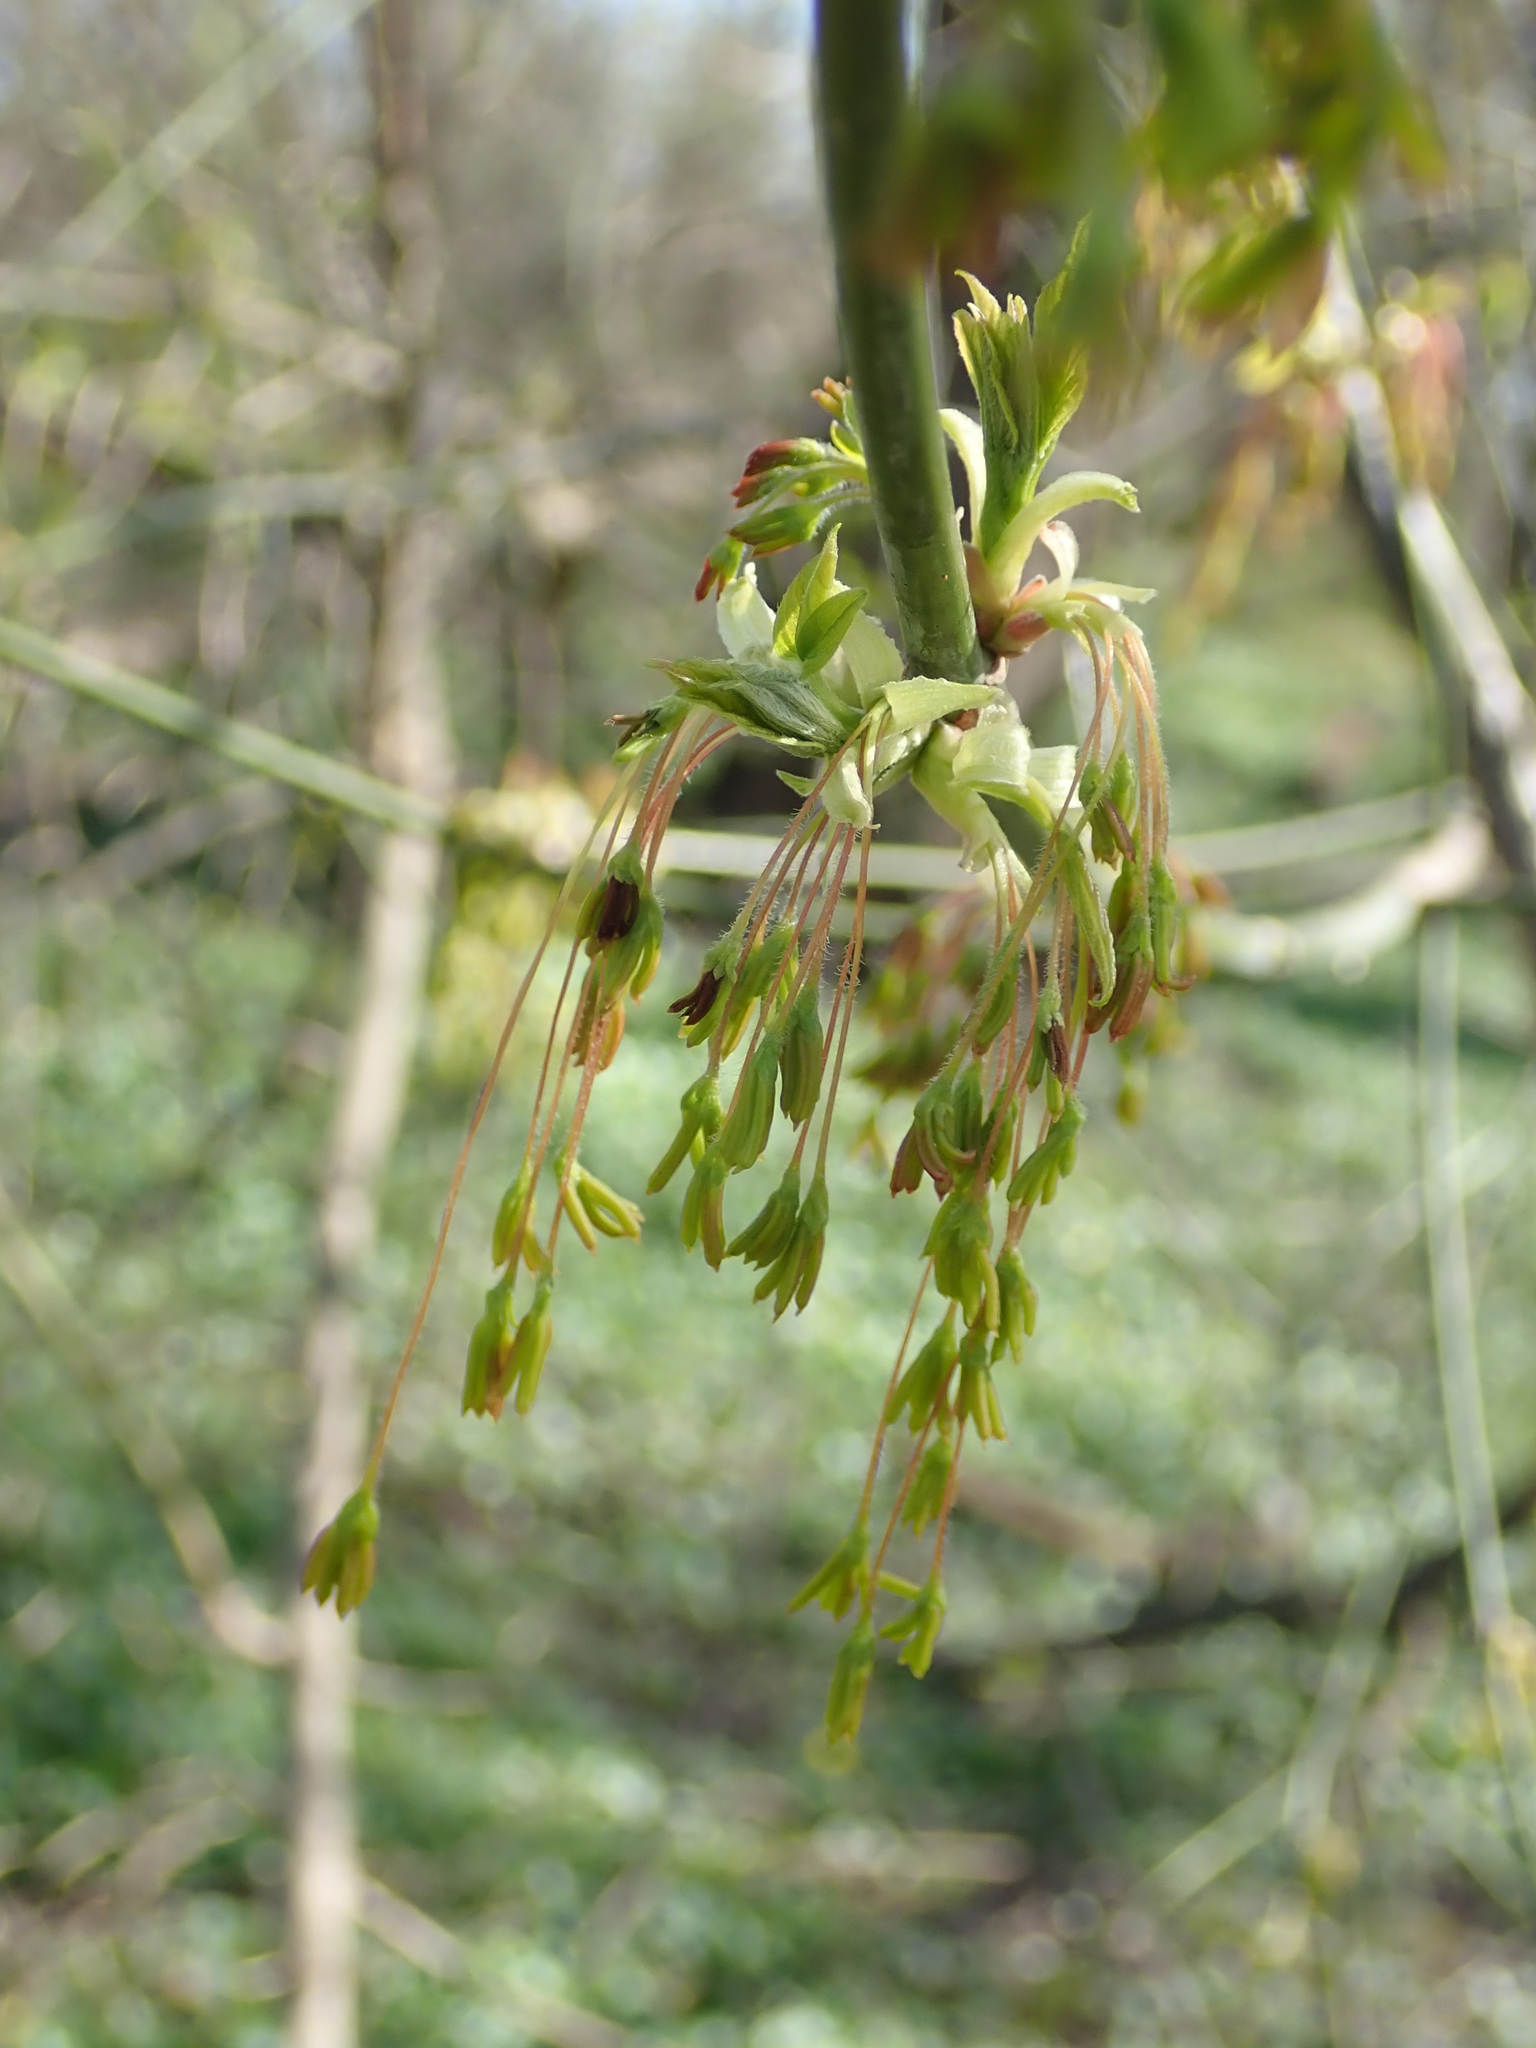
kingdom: Plantae
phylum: Tracheophyta
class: Magnoliopsida
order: Sapindales
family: Sapindaceae
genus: Acer
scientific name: Acer negundo
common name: Ashleaf maple
